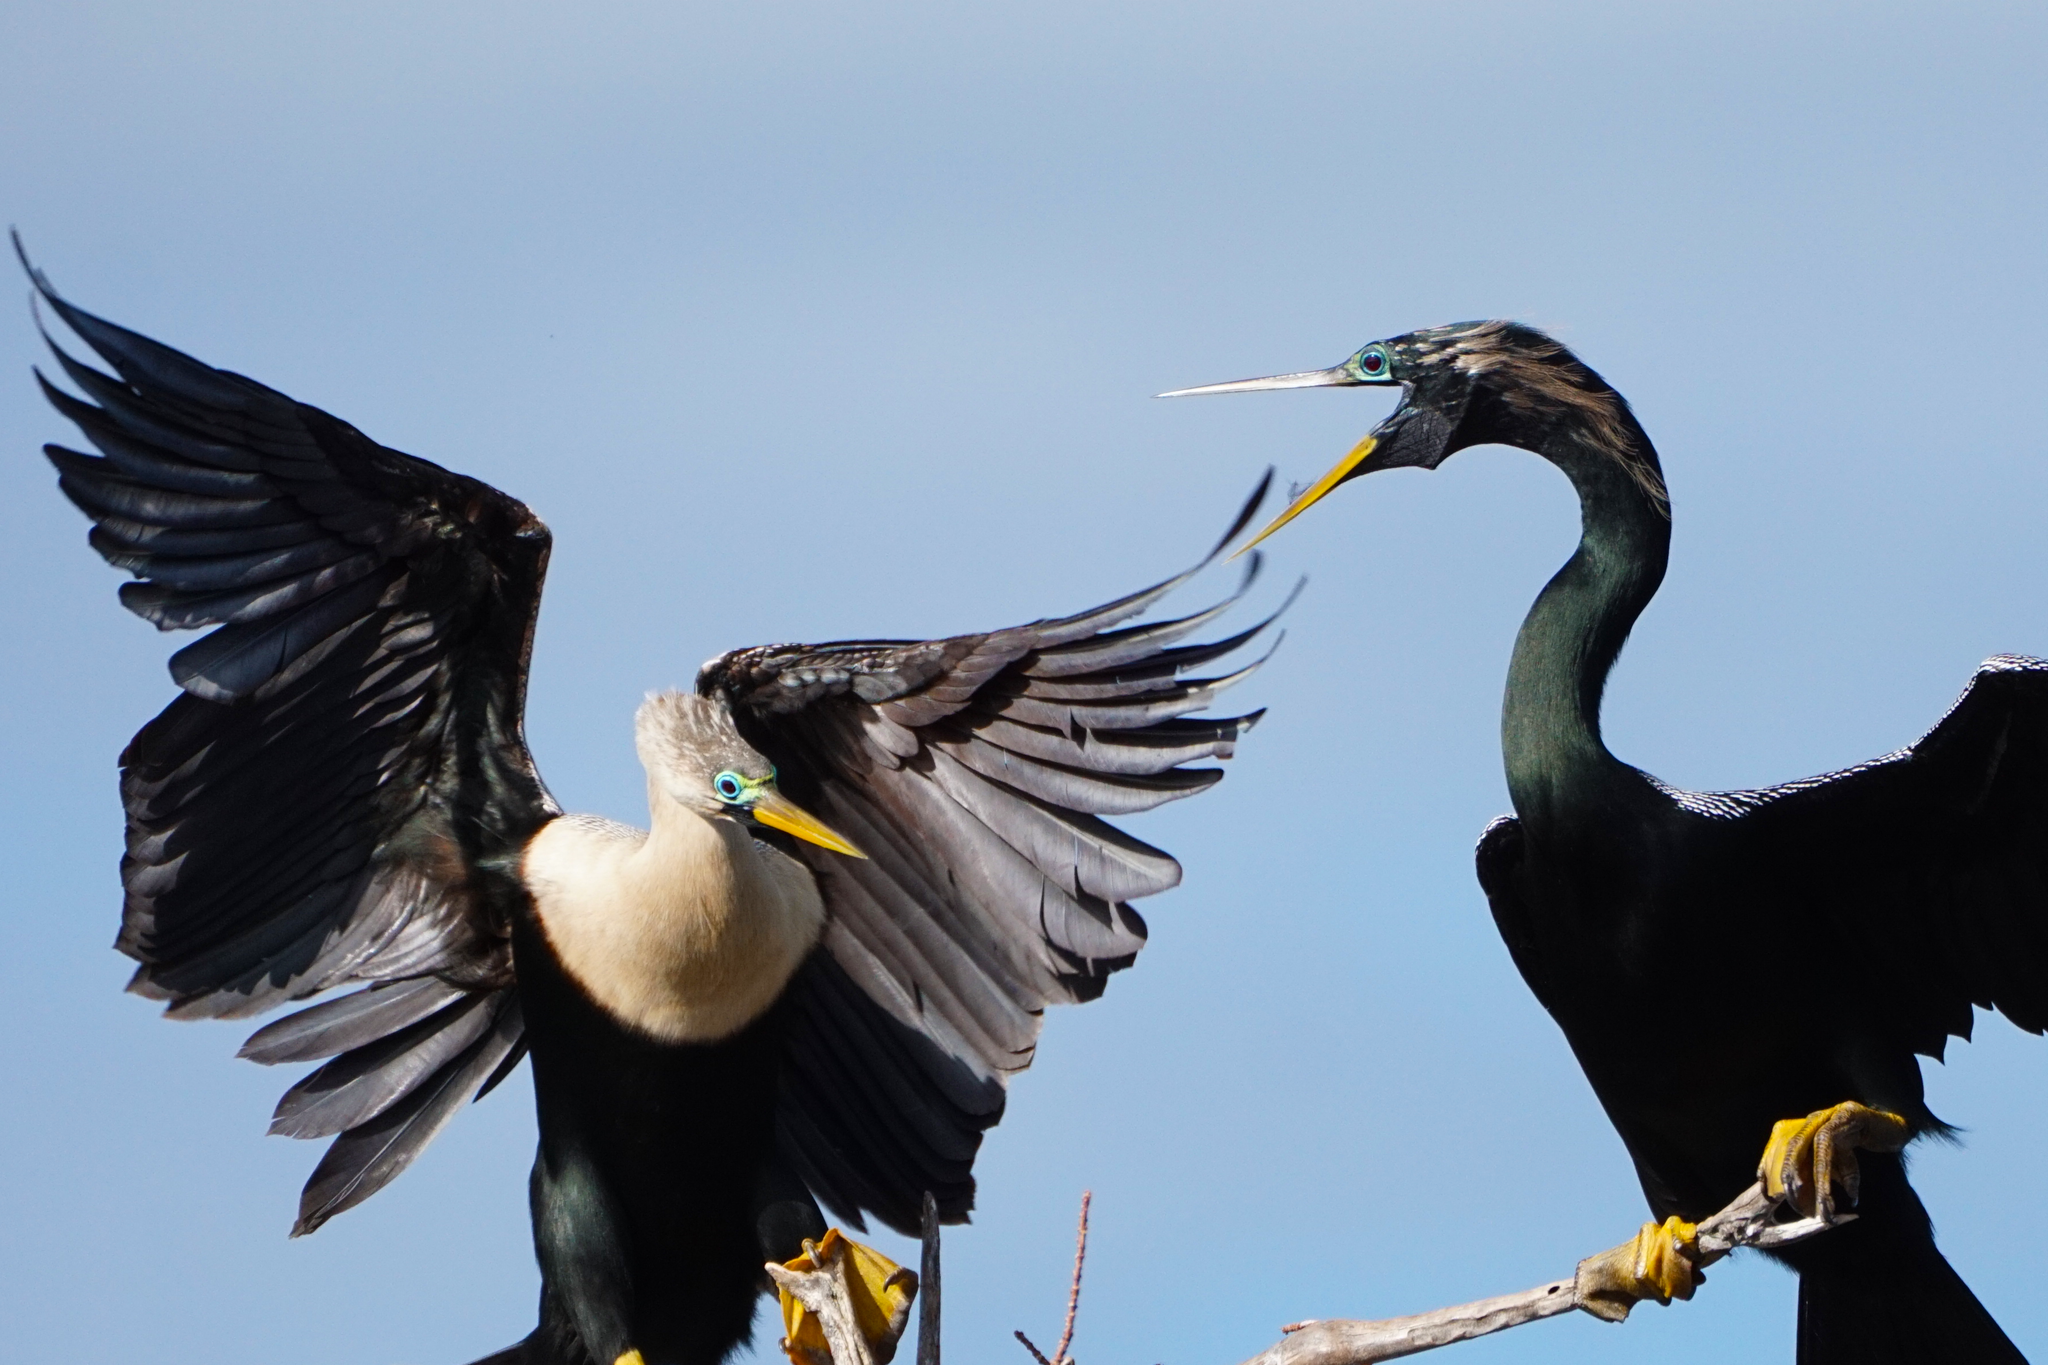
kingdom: Animalia
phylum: Chordata
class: Aves
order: Suliformes
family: Anhingidae
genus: Anhinga
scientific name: Anhinga anhinga
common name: Anhinga
